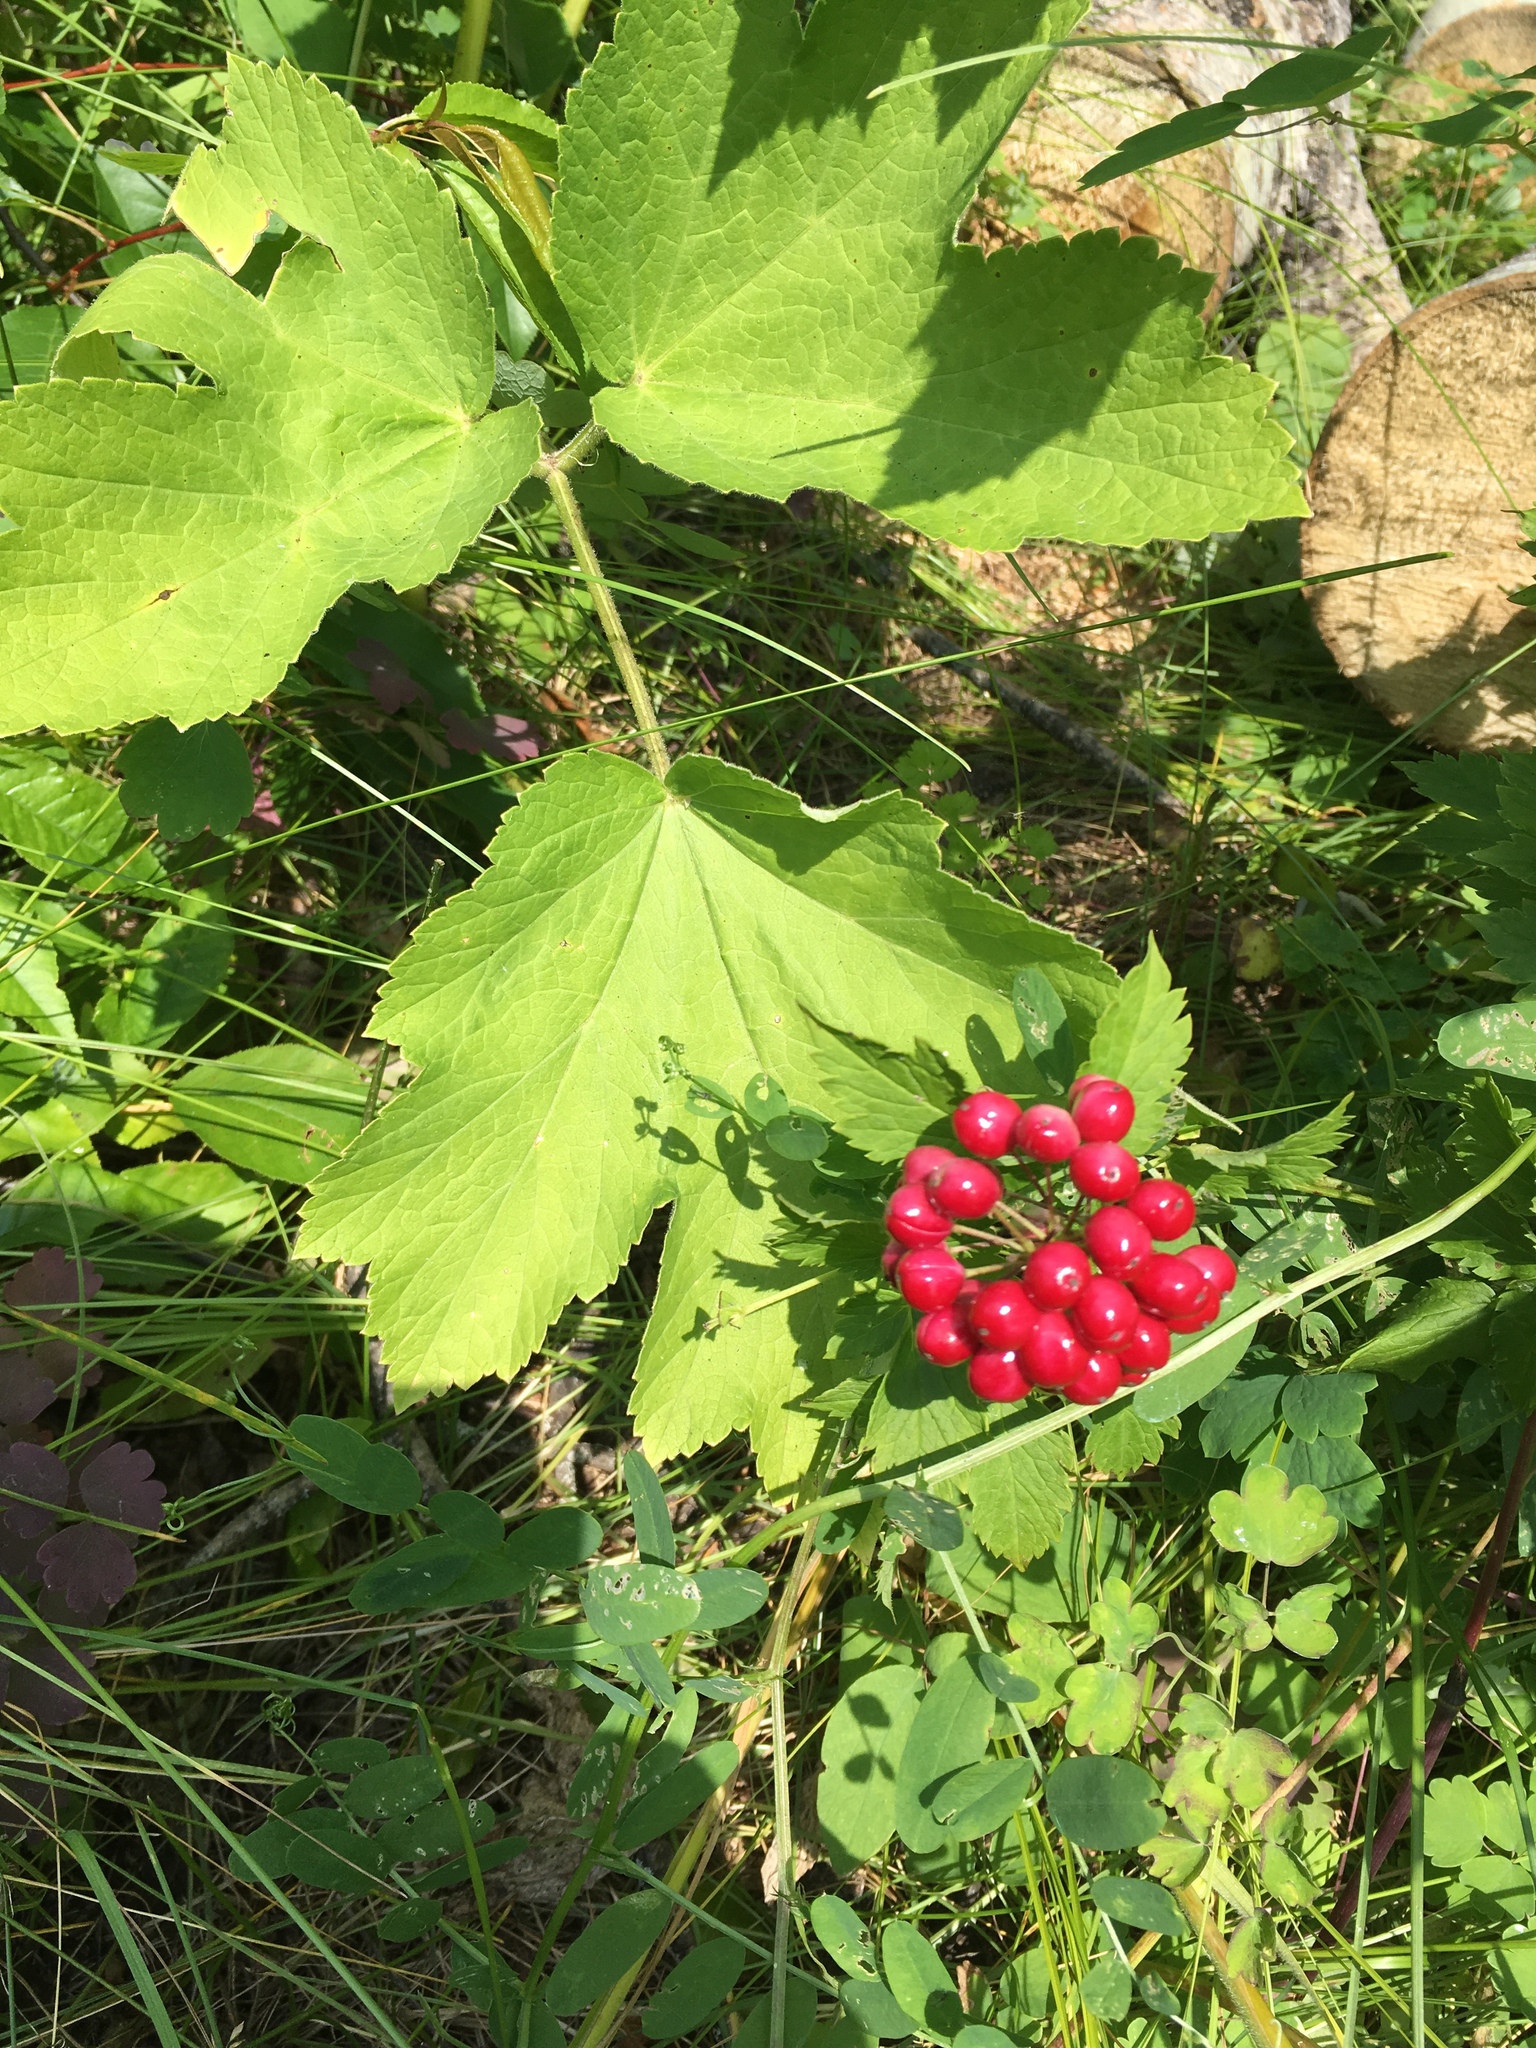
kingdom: Plantae
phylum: Tracheophyta
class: Magnoliopsida
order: Ranunculales
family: Ranunculaceae
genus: Actaea
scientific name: Actaea rubra
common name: Red baneberry
